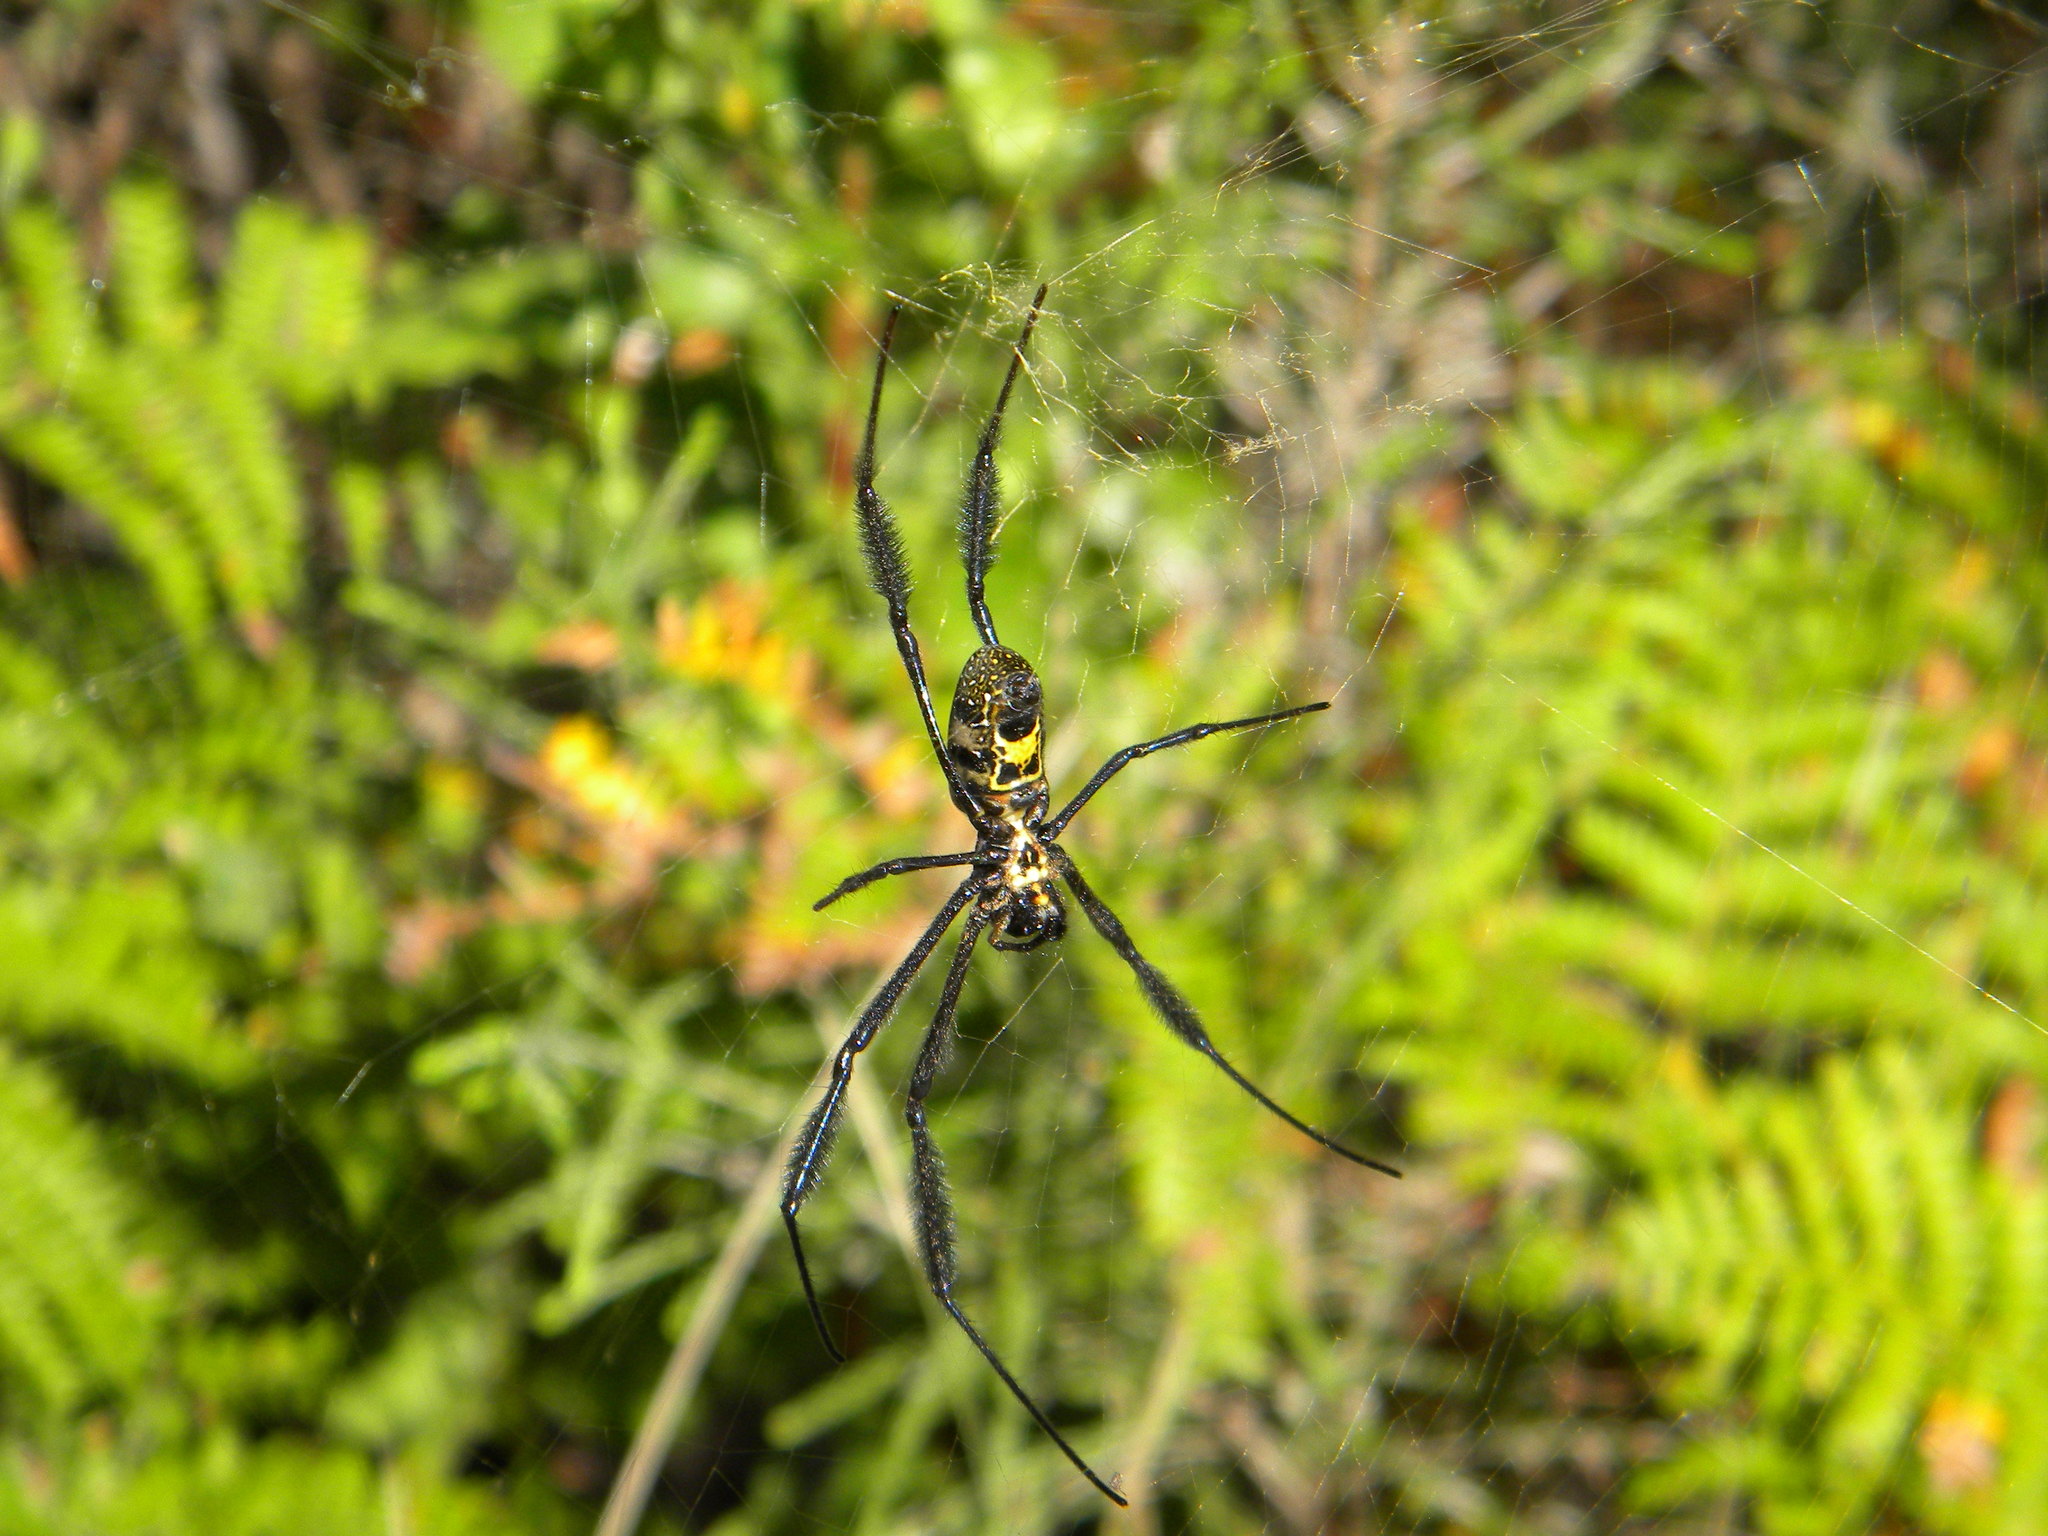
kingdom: Animalia
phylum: Arthropoda
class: Arachnida
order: Araneae
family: Araneidae
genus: Trichonephila
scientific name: Trichonephila fenestrata
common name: Hairy golden orb weaver
